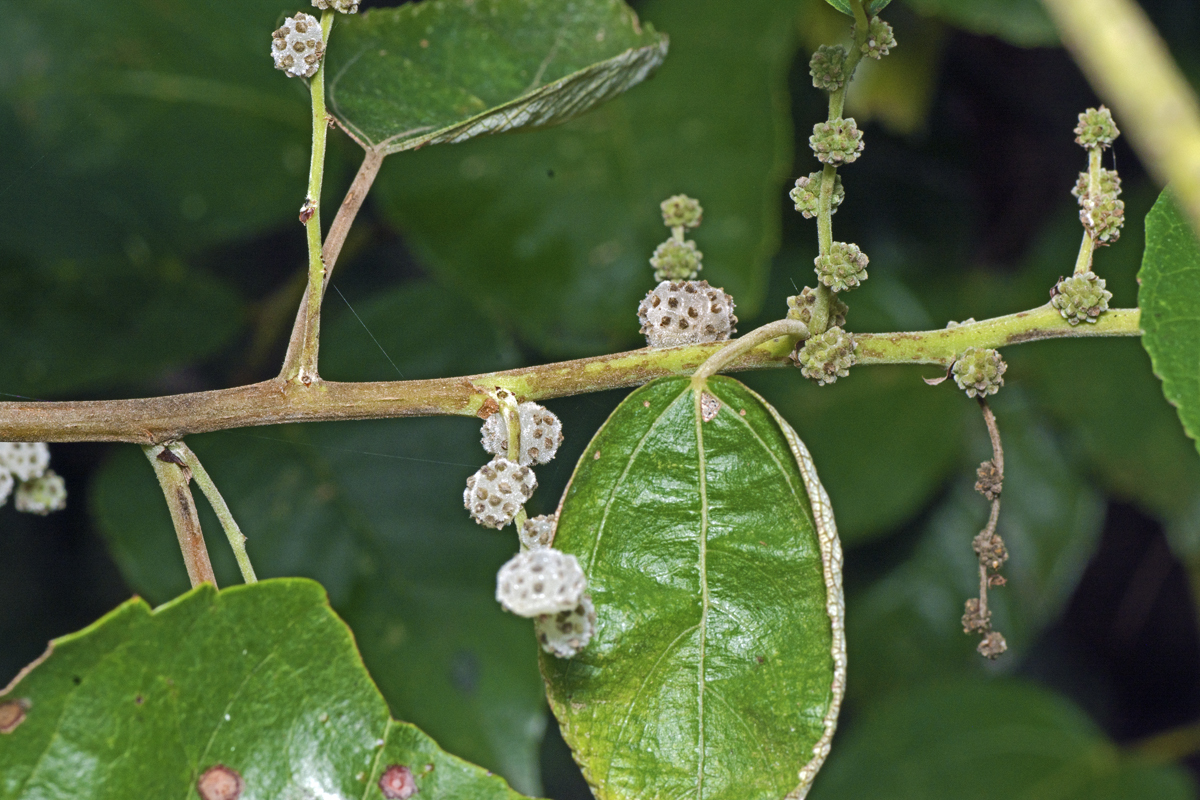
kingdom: Plantae
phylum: Tracheophyta
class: Magnoliopsida
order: Rosales
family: Urticaceae
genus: Pipturus
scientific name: Pipturus argenteus
